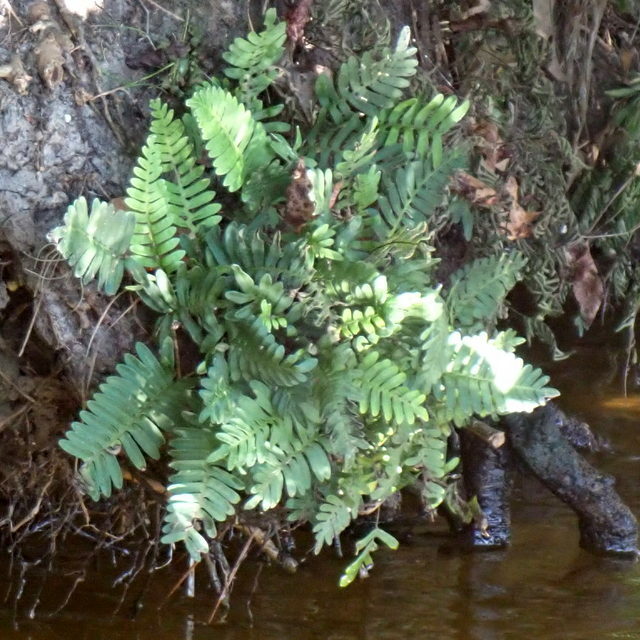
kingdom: Plantae
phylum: Tracheophyta
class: Polypodiopsida
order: Polypodiales
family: Polypodiaceae
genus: Pleopeltis
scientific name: Pleopeltis michauxiana
